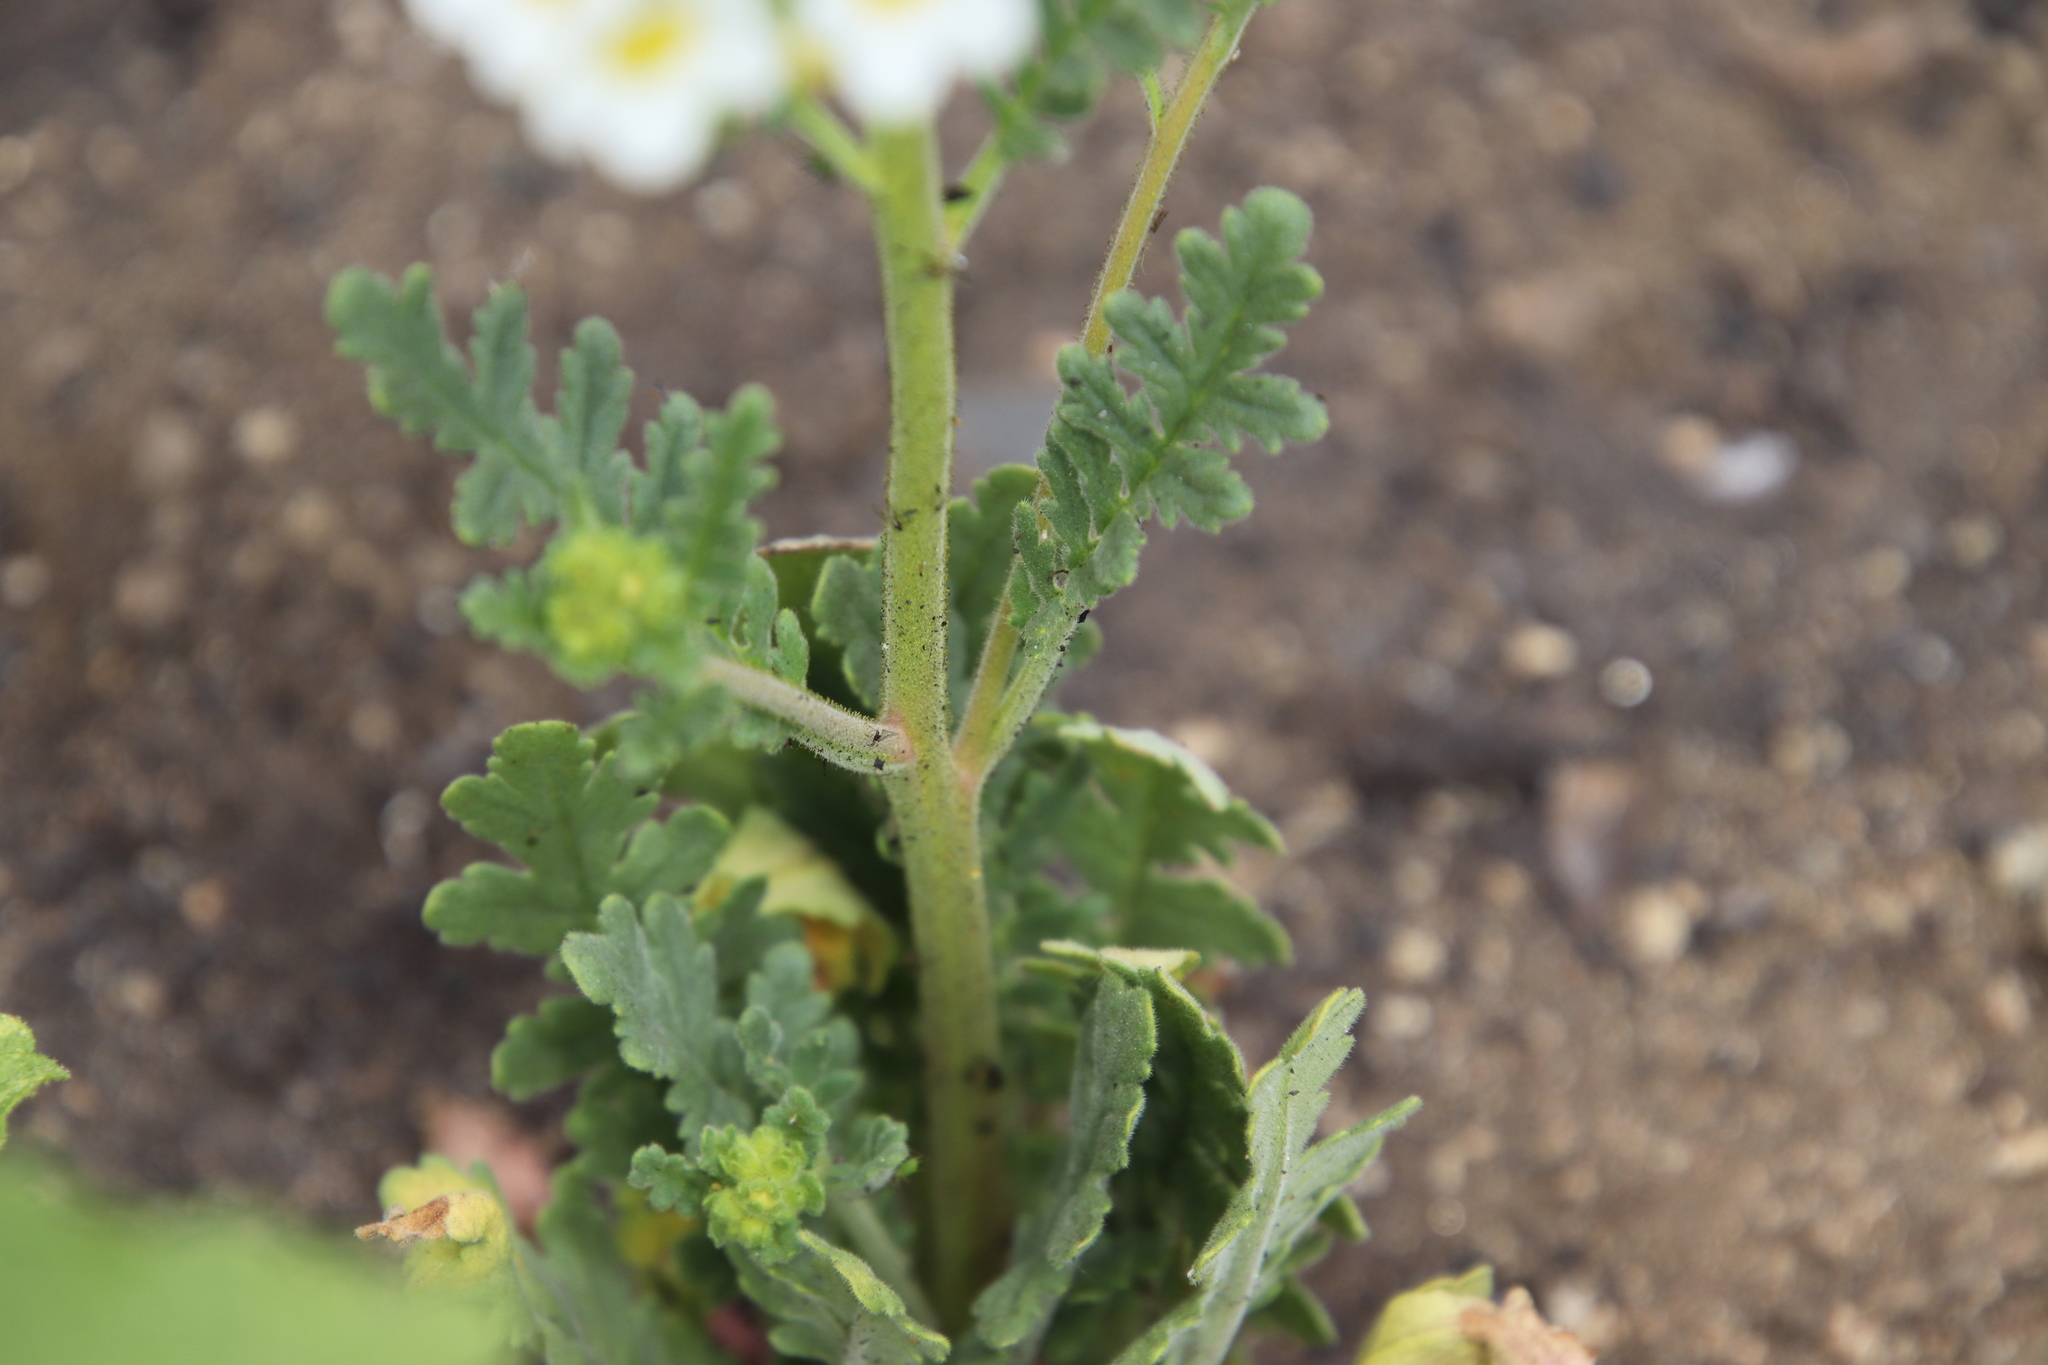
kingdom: Plantae
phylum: Tracheophyta
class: Magnoliopsida
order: Boraginales
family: Hydrophyllaceae
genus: Phacelia
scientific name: Phacelia brachyloba
